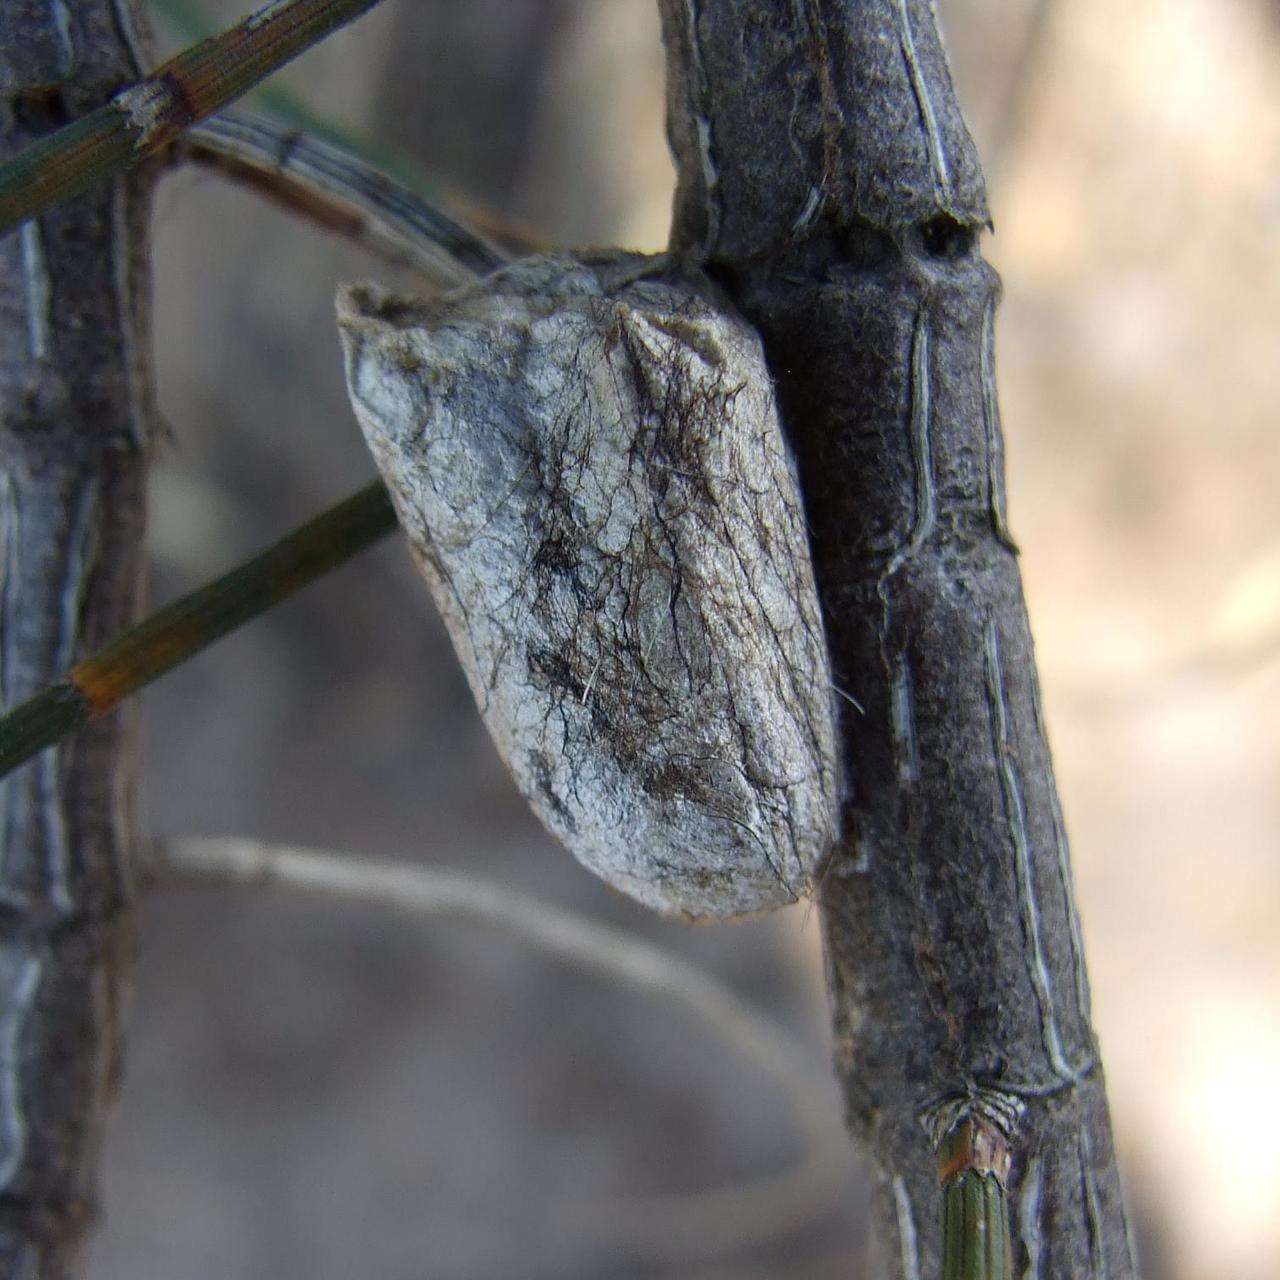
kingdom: Animalia
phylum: Arthropoda
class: Insecta
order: Lepidoptera
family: Lasiocampidae
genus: Pernattia
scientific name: Pernattia pusilla
